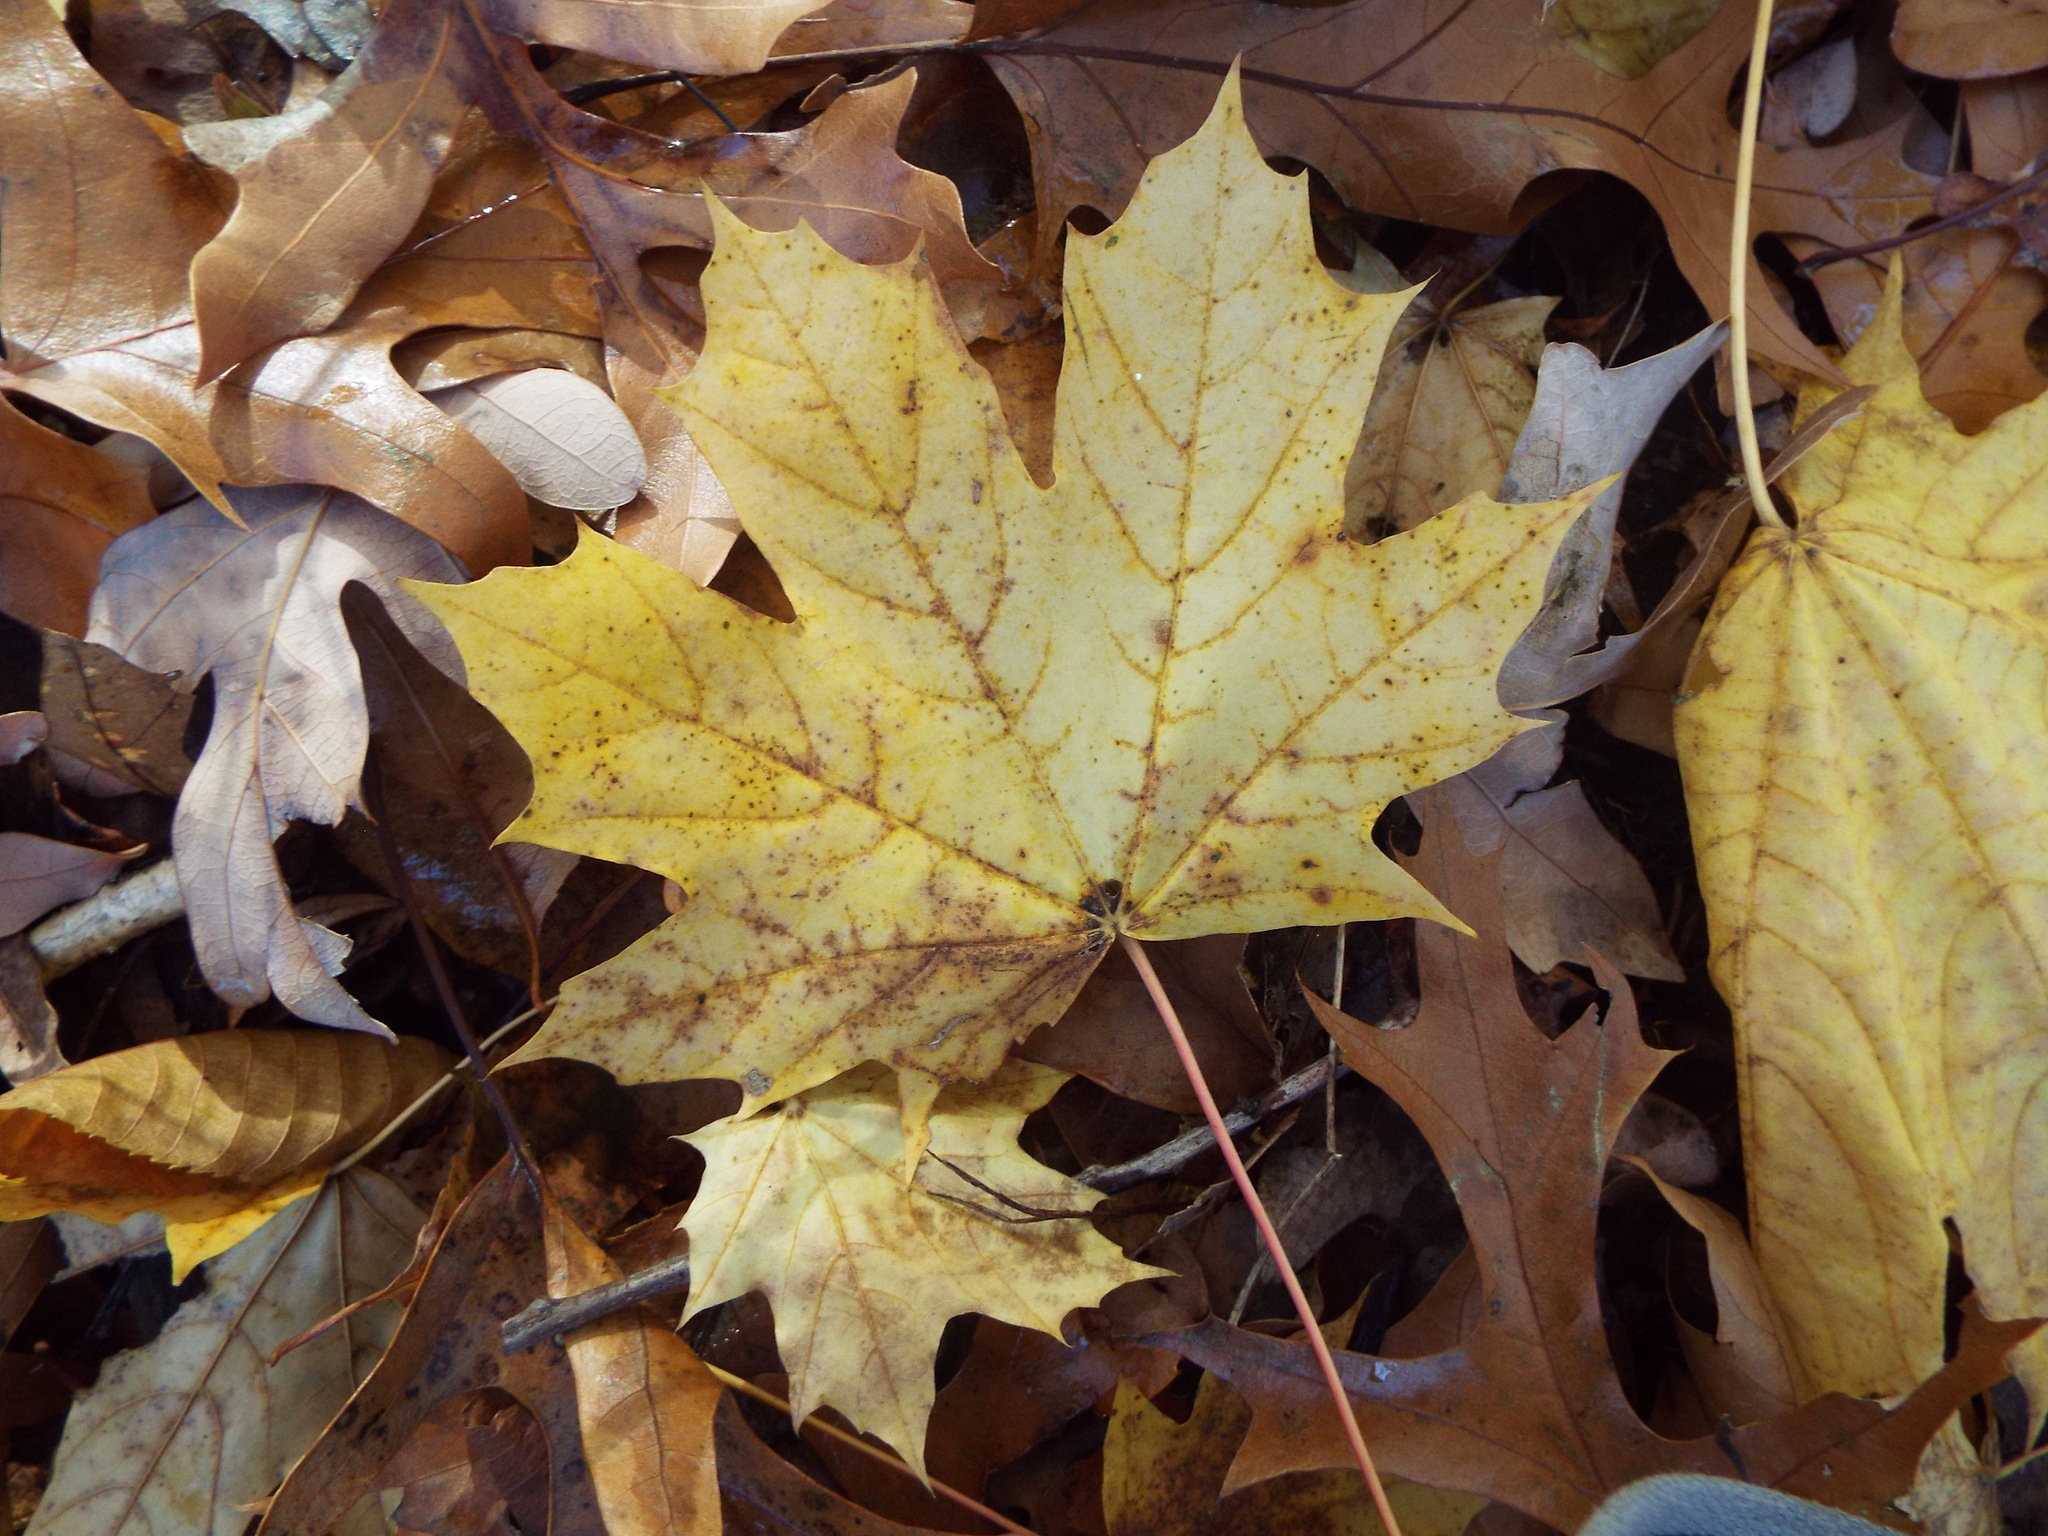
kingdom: Plantae
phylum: Tracheophyta
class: Magnoliopsida
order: Sapindales
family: Sapindaceae
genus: Acer
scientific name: Acer platanoides
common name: Norway maple
